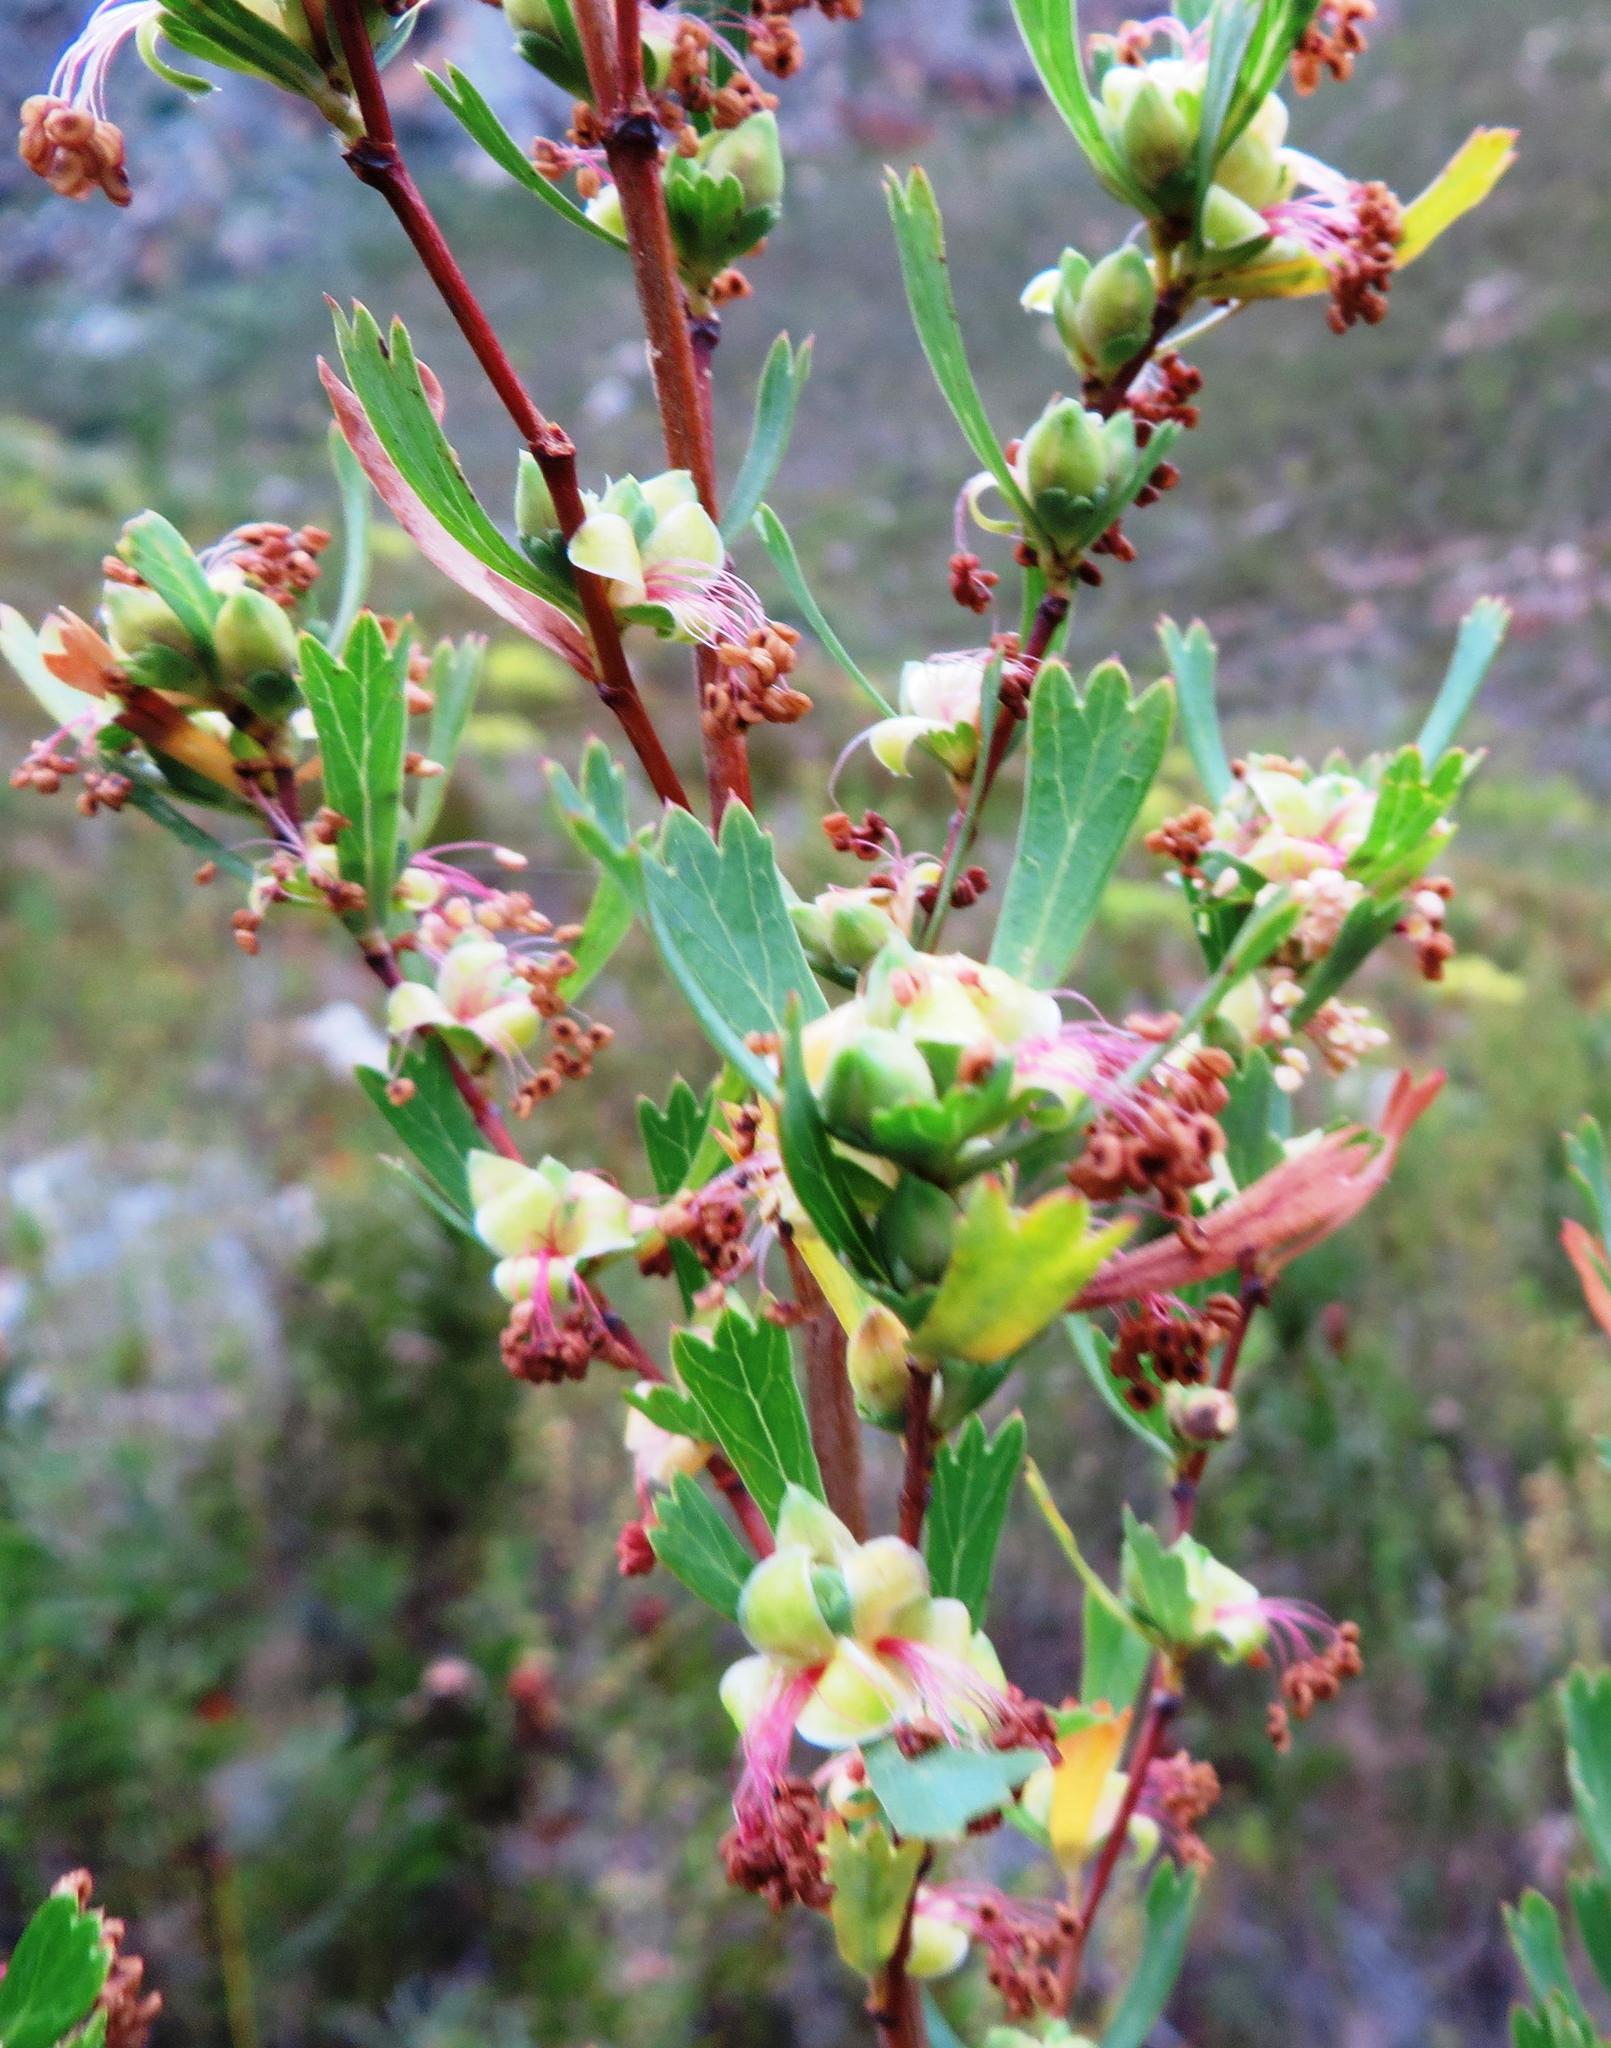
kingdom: Plantae
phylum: Tracheophyta
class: Magnoliopsida
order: Rosales
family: Rosaceae
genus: Cliffortia
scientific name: Cliffortia cuneata
